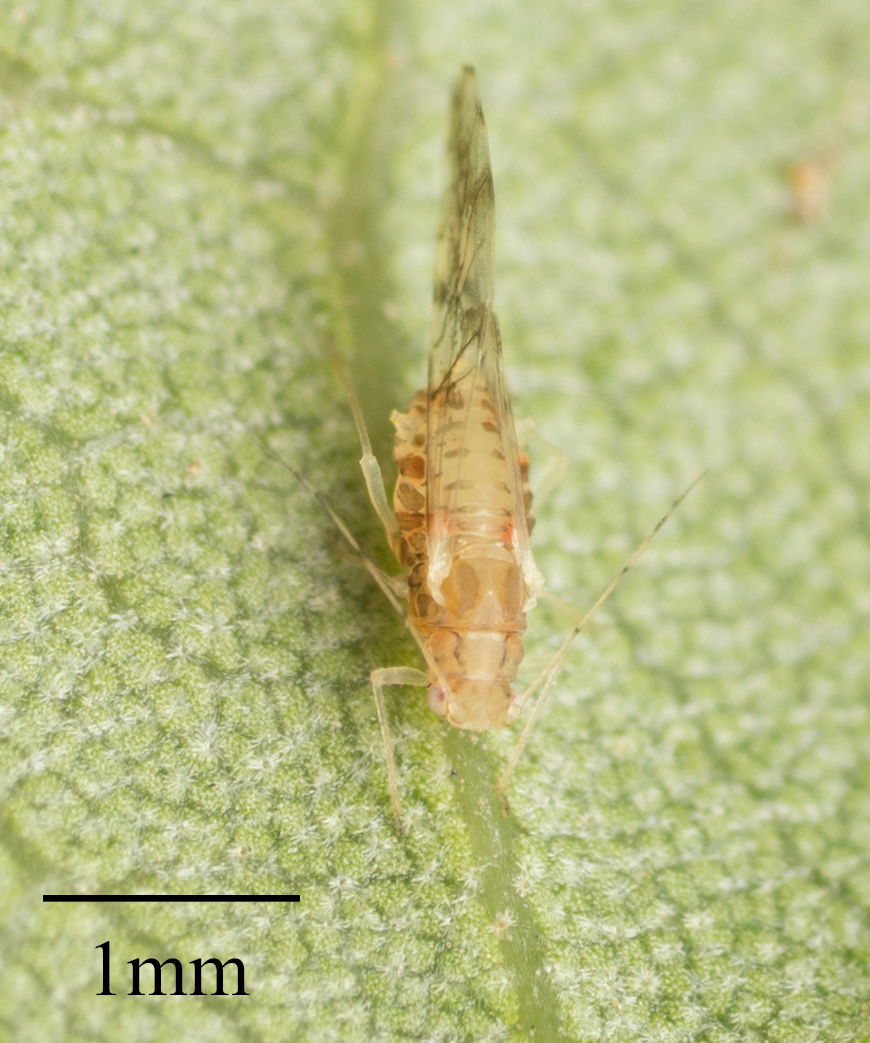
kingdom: Animalia
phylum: Arthropoda
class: Insecta
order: Hemiptera
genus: Neomyzocallis
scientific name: Neomyzocallis
